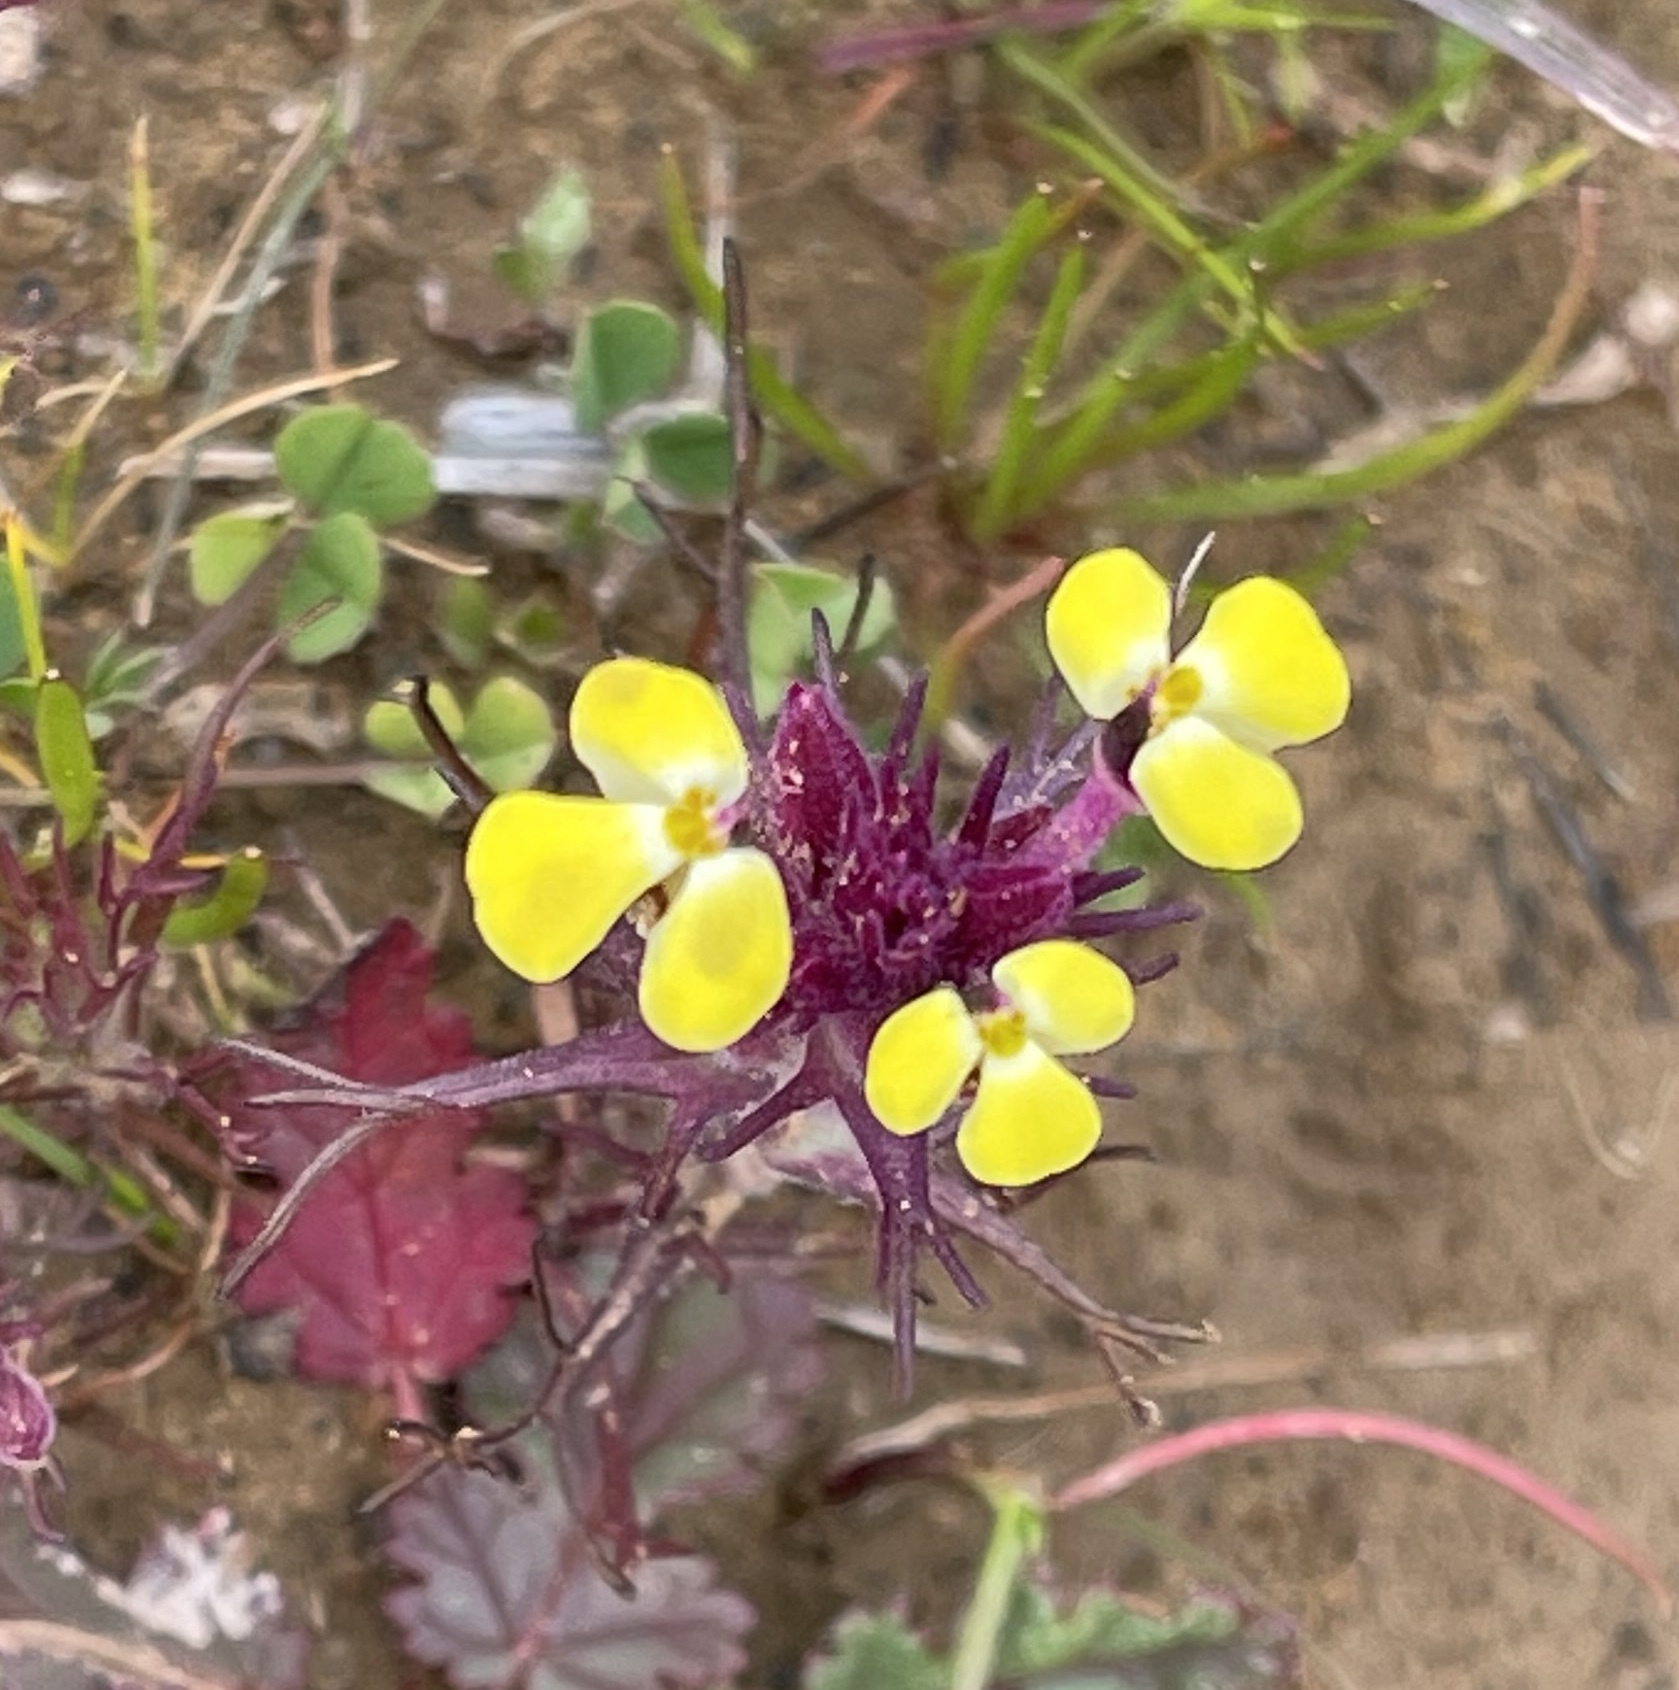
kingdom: Plantae
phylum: Tracheophyta
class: Magnoliopsida
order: Lamiales
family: Orobanchaceae
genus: Triphysaria
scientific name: Triphysaria eriantha
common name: Johnny-tuck
